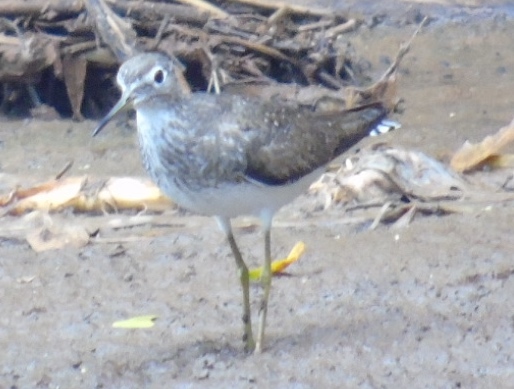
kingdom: Animalia
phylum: Chordata
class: Aves
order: Charadriiformes
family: Scolopacidae
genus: Tringa
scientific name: Tringa solitaria
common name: Solitary sandpiper
